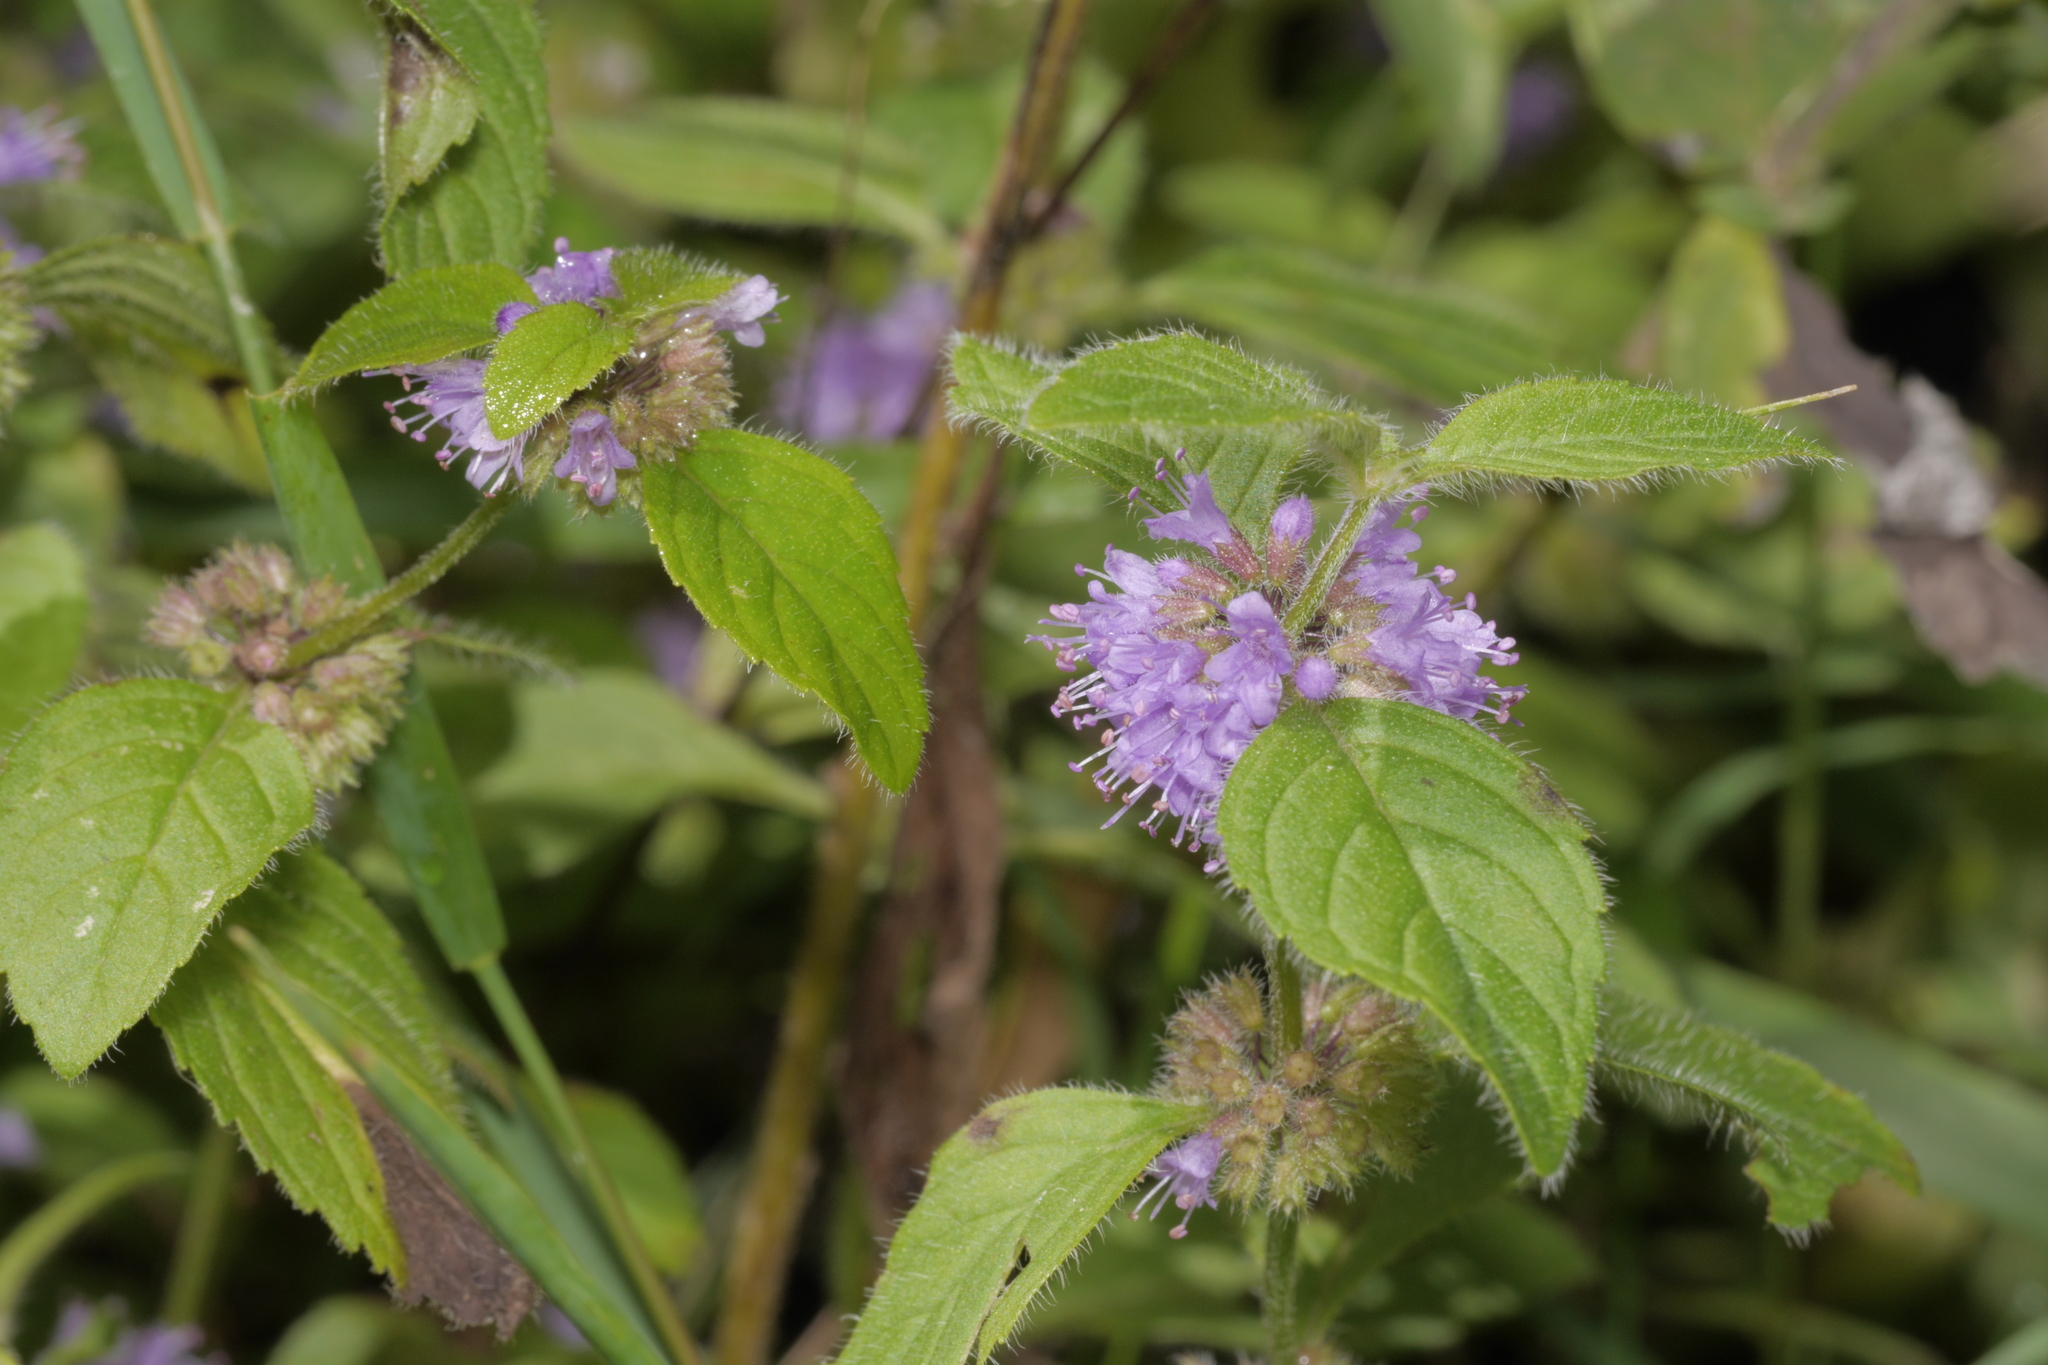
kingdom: Plantae
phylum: Tracheophyta
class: Magnoliopsida
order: Lamiales
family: Lamiaceae
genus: Mentha
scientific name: Mentha arvensis
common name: Corn mint
